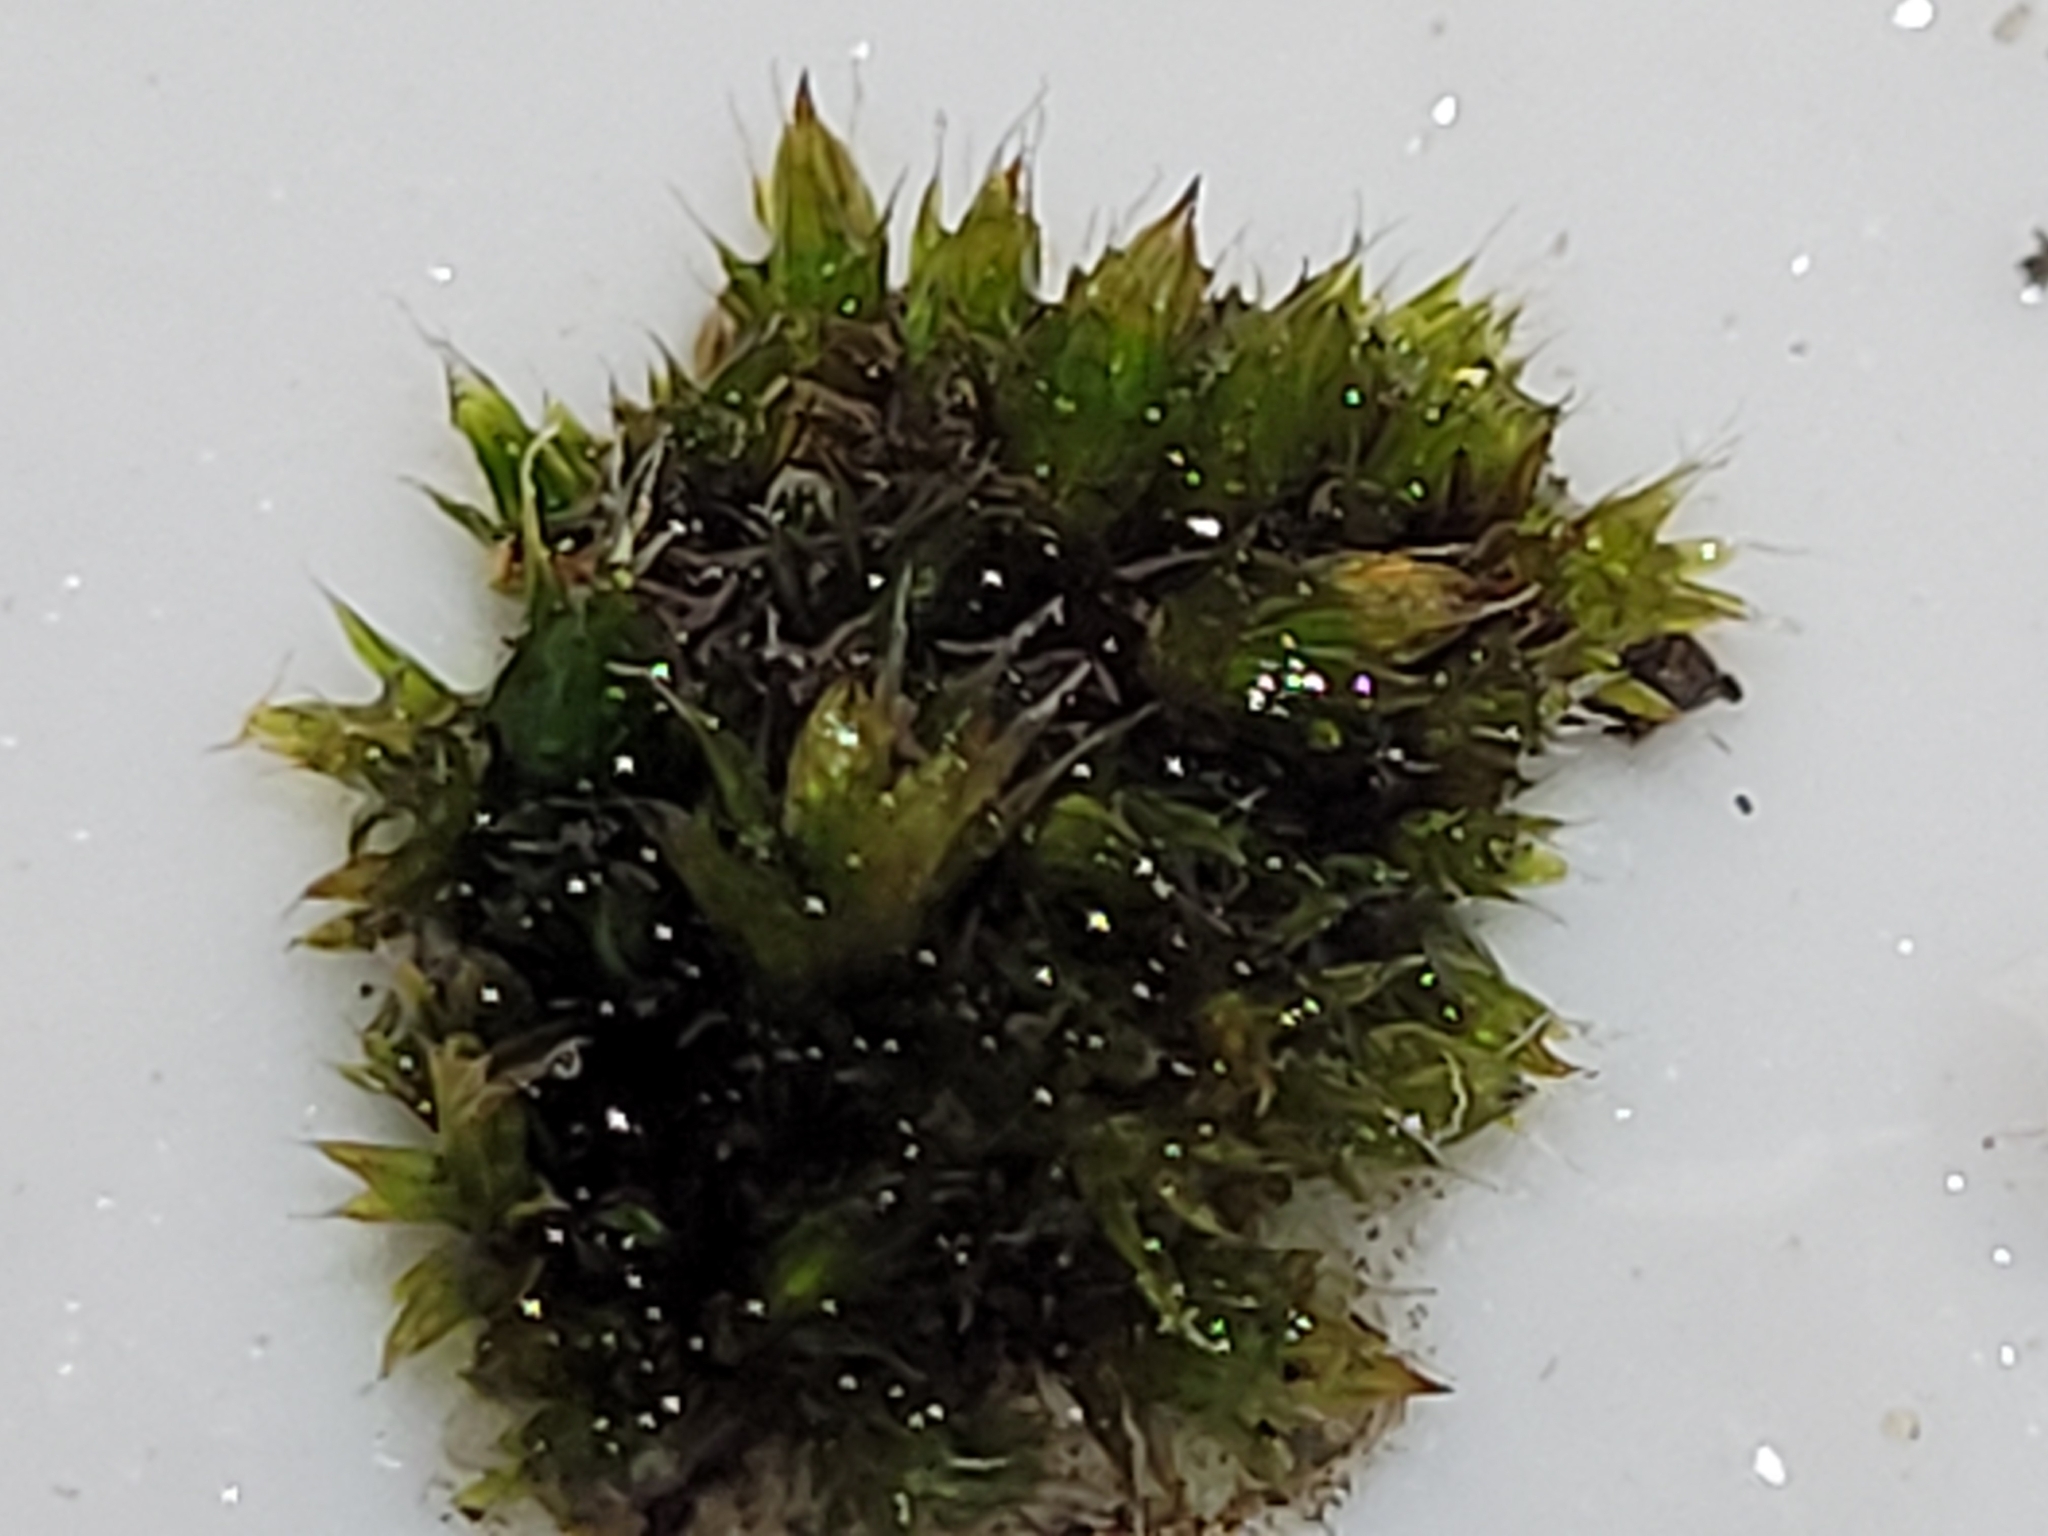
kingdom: Plantae
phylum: Bryophyta
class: Bryopsida
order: Orthotrichales
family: Orthotrichaceae
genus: Orthotrichum
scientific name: Orthotrichum diaphanum
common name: White-tipped bristle-moss
